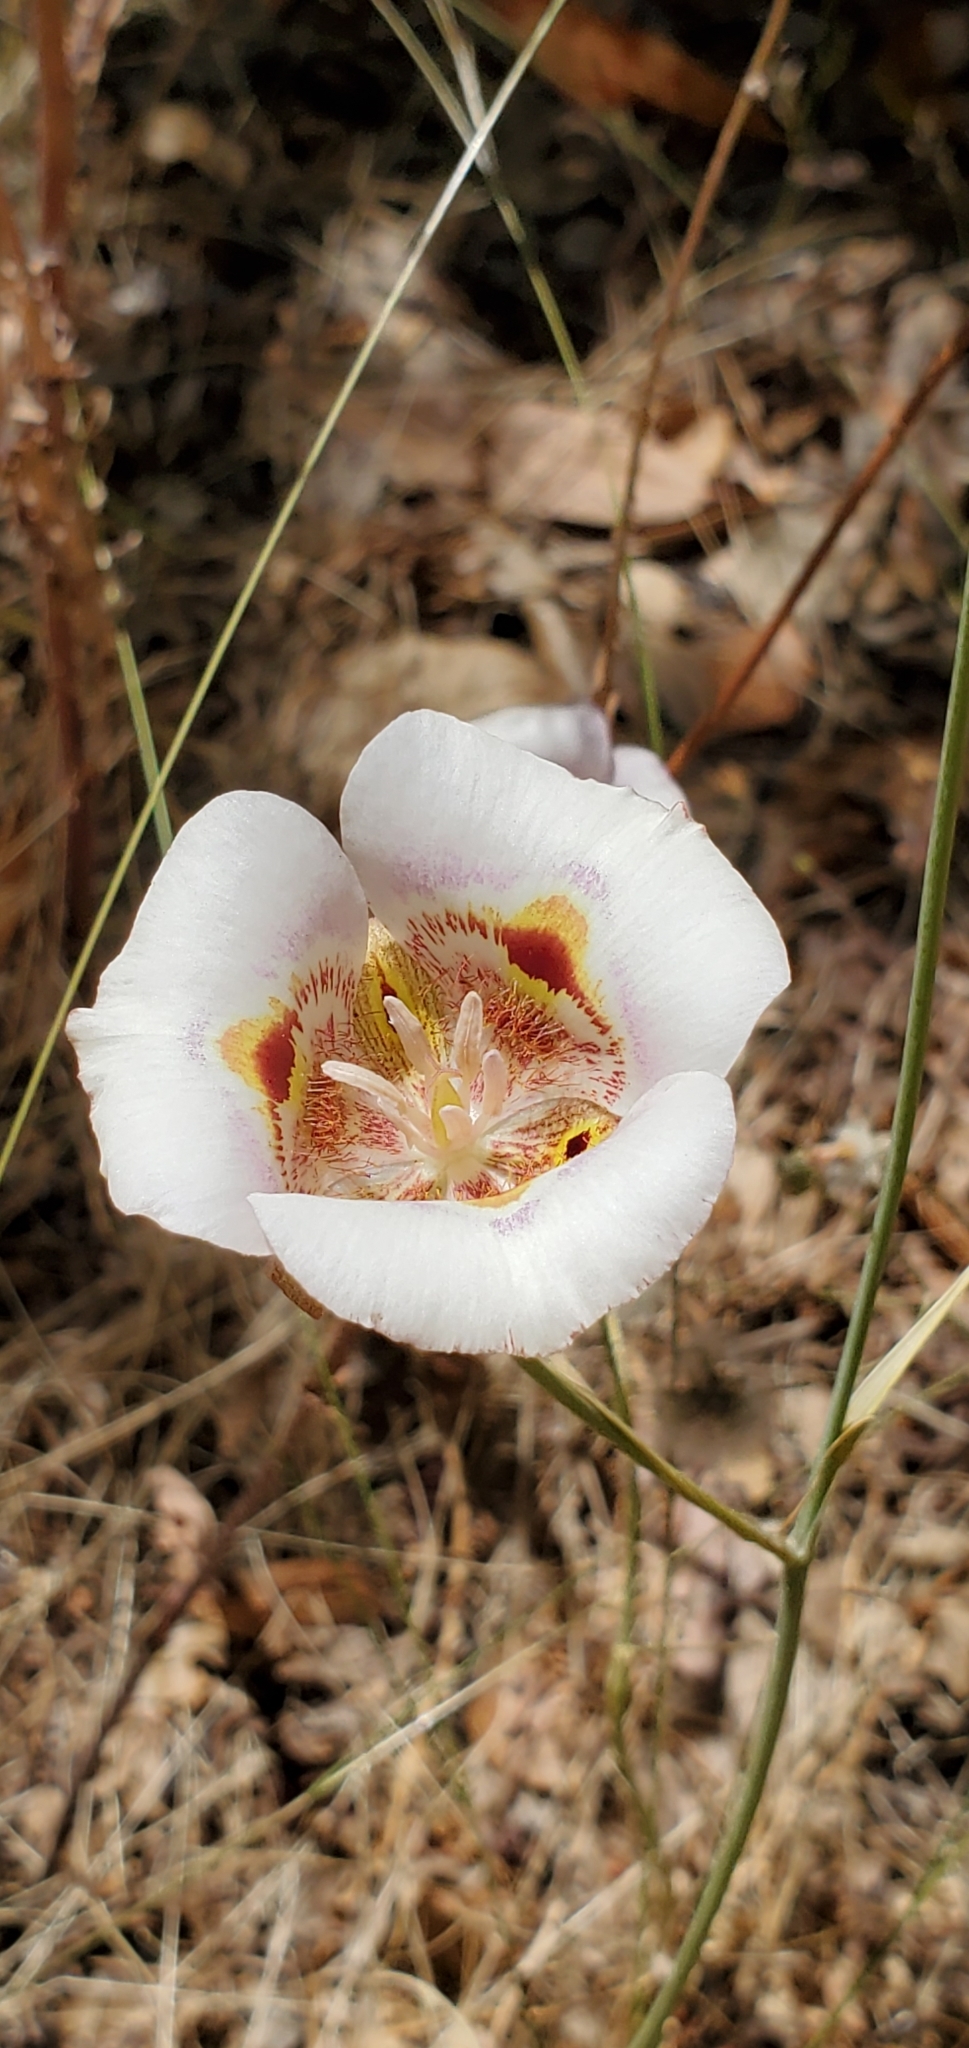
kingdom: Plantae
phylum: Tracheophyta
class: Liliopsida
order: Liliales
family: Liliaceae
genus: Calochortus
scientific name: Calochortus argillosus
